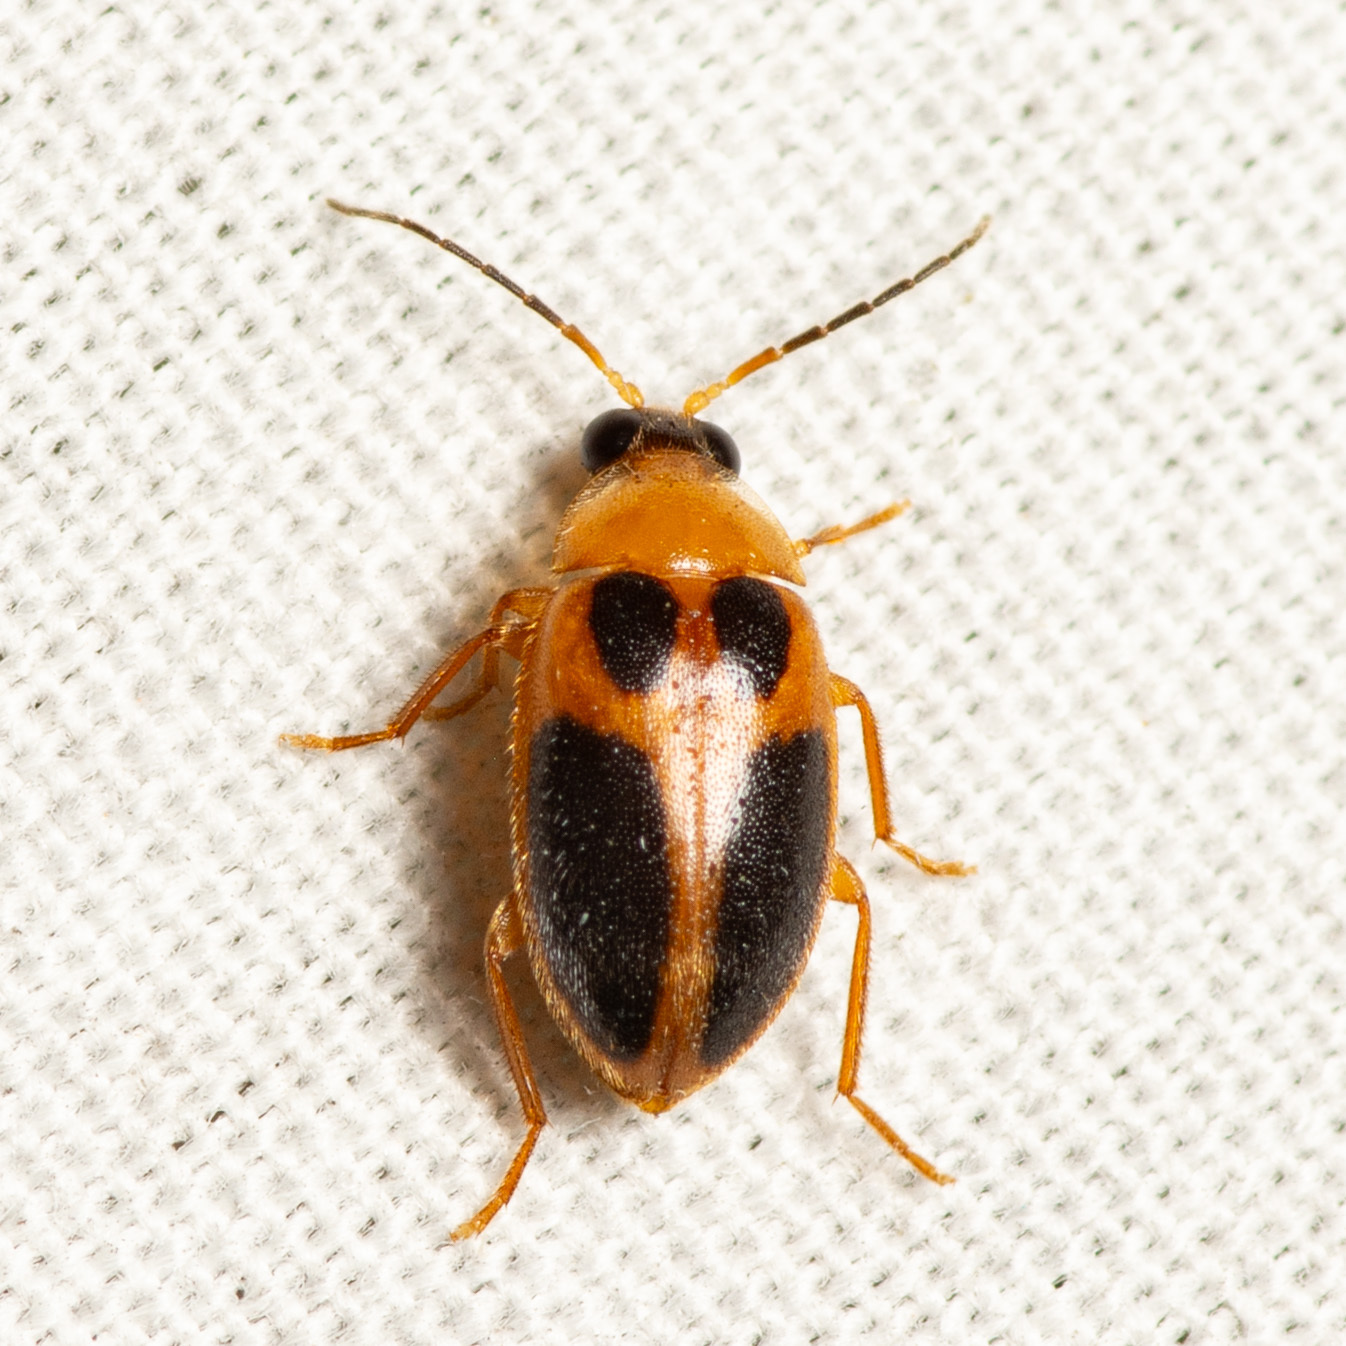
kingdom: Animalia
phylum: Arthropoda
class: Insecta
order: Coleoptera
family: Scirtidae
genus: Sacodes
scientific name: Sacodes pulchella
